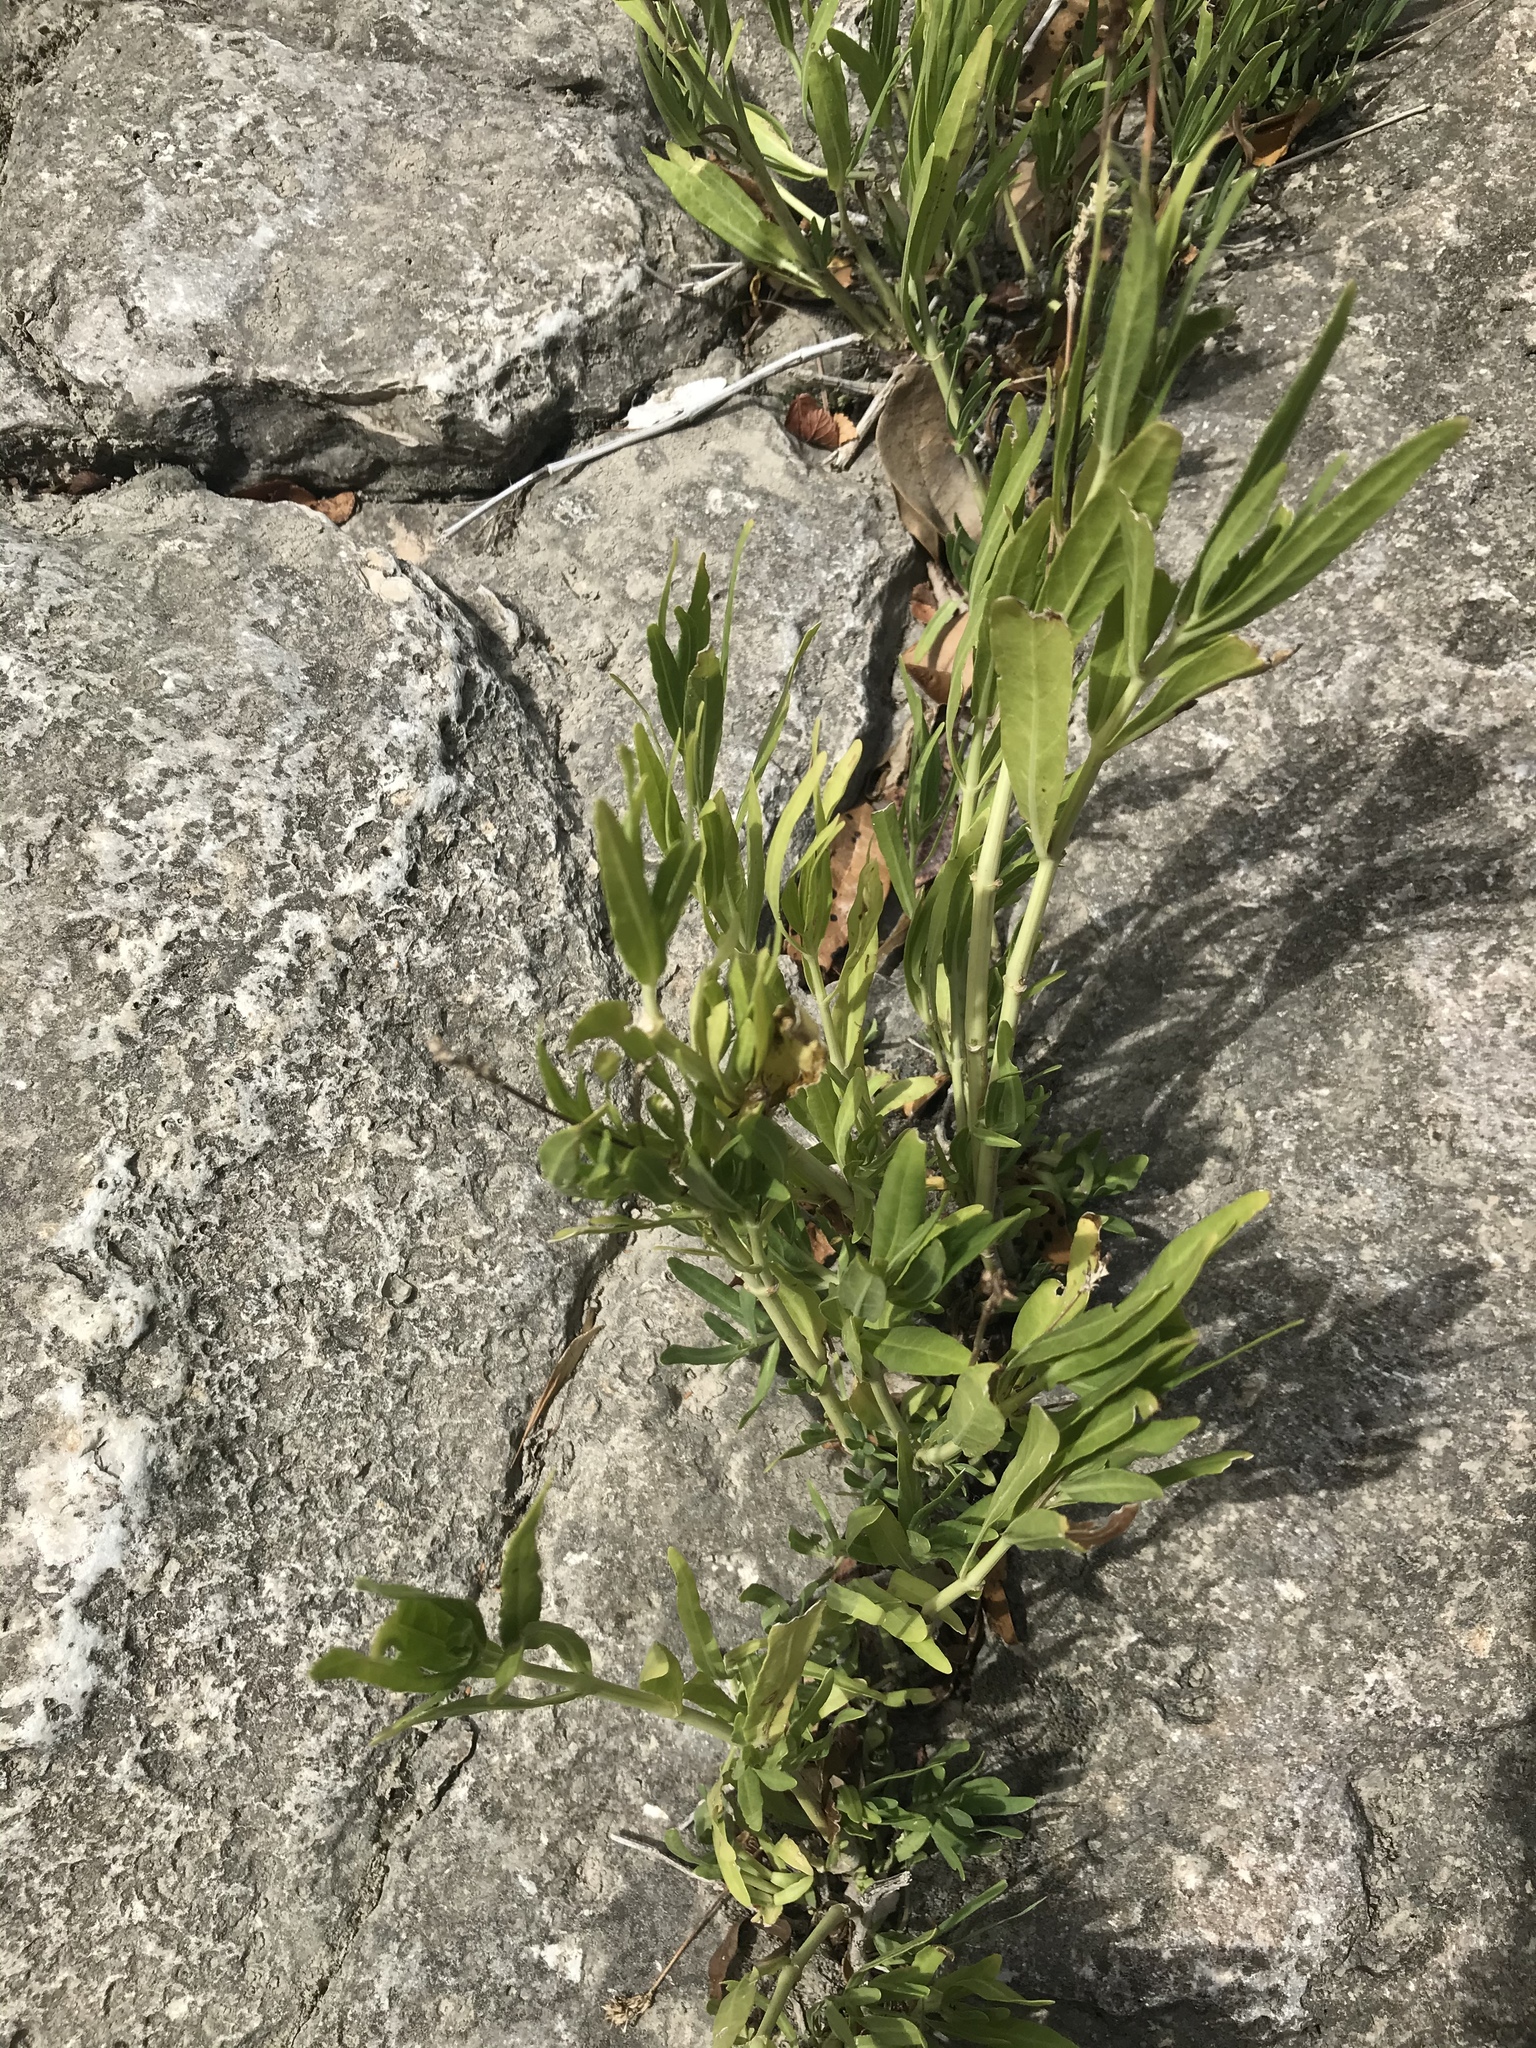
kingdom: Plantae
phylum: Tracheophyta
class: Magnoliopsida
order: Lamiales
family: Acanthaceae
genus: Dianthera
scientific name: Dianthera americana
